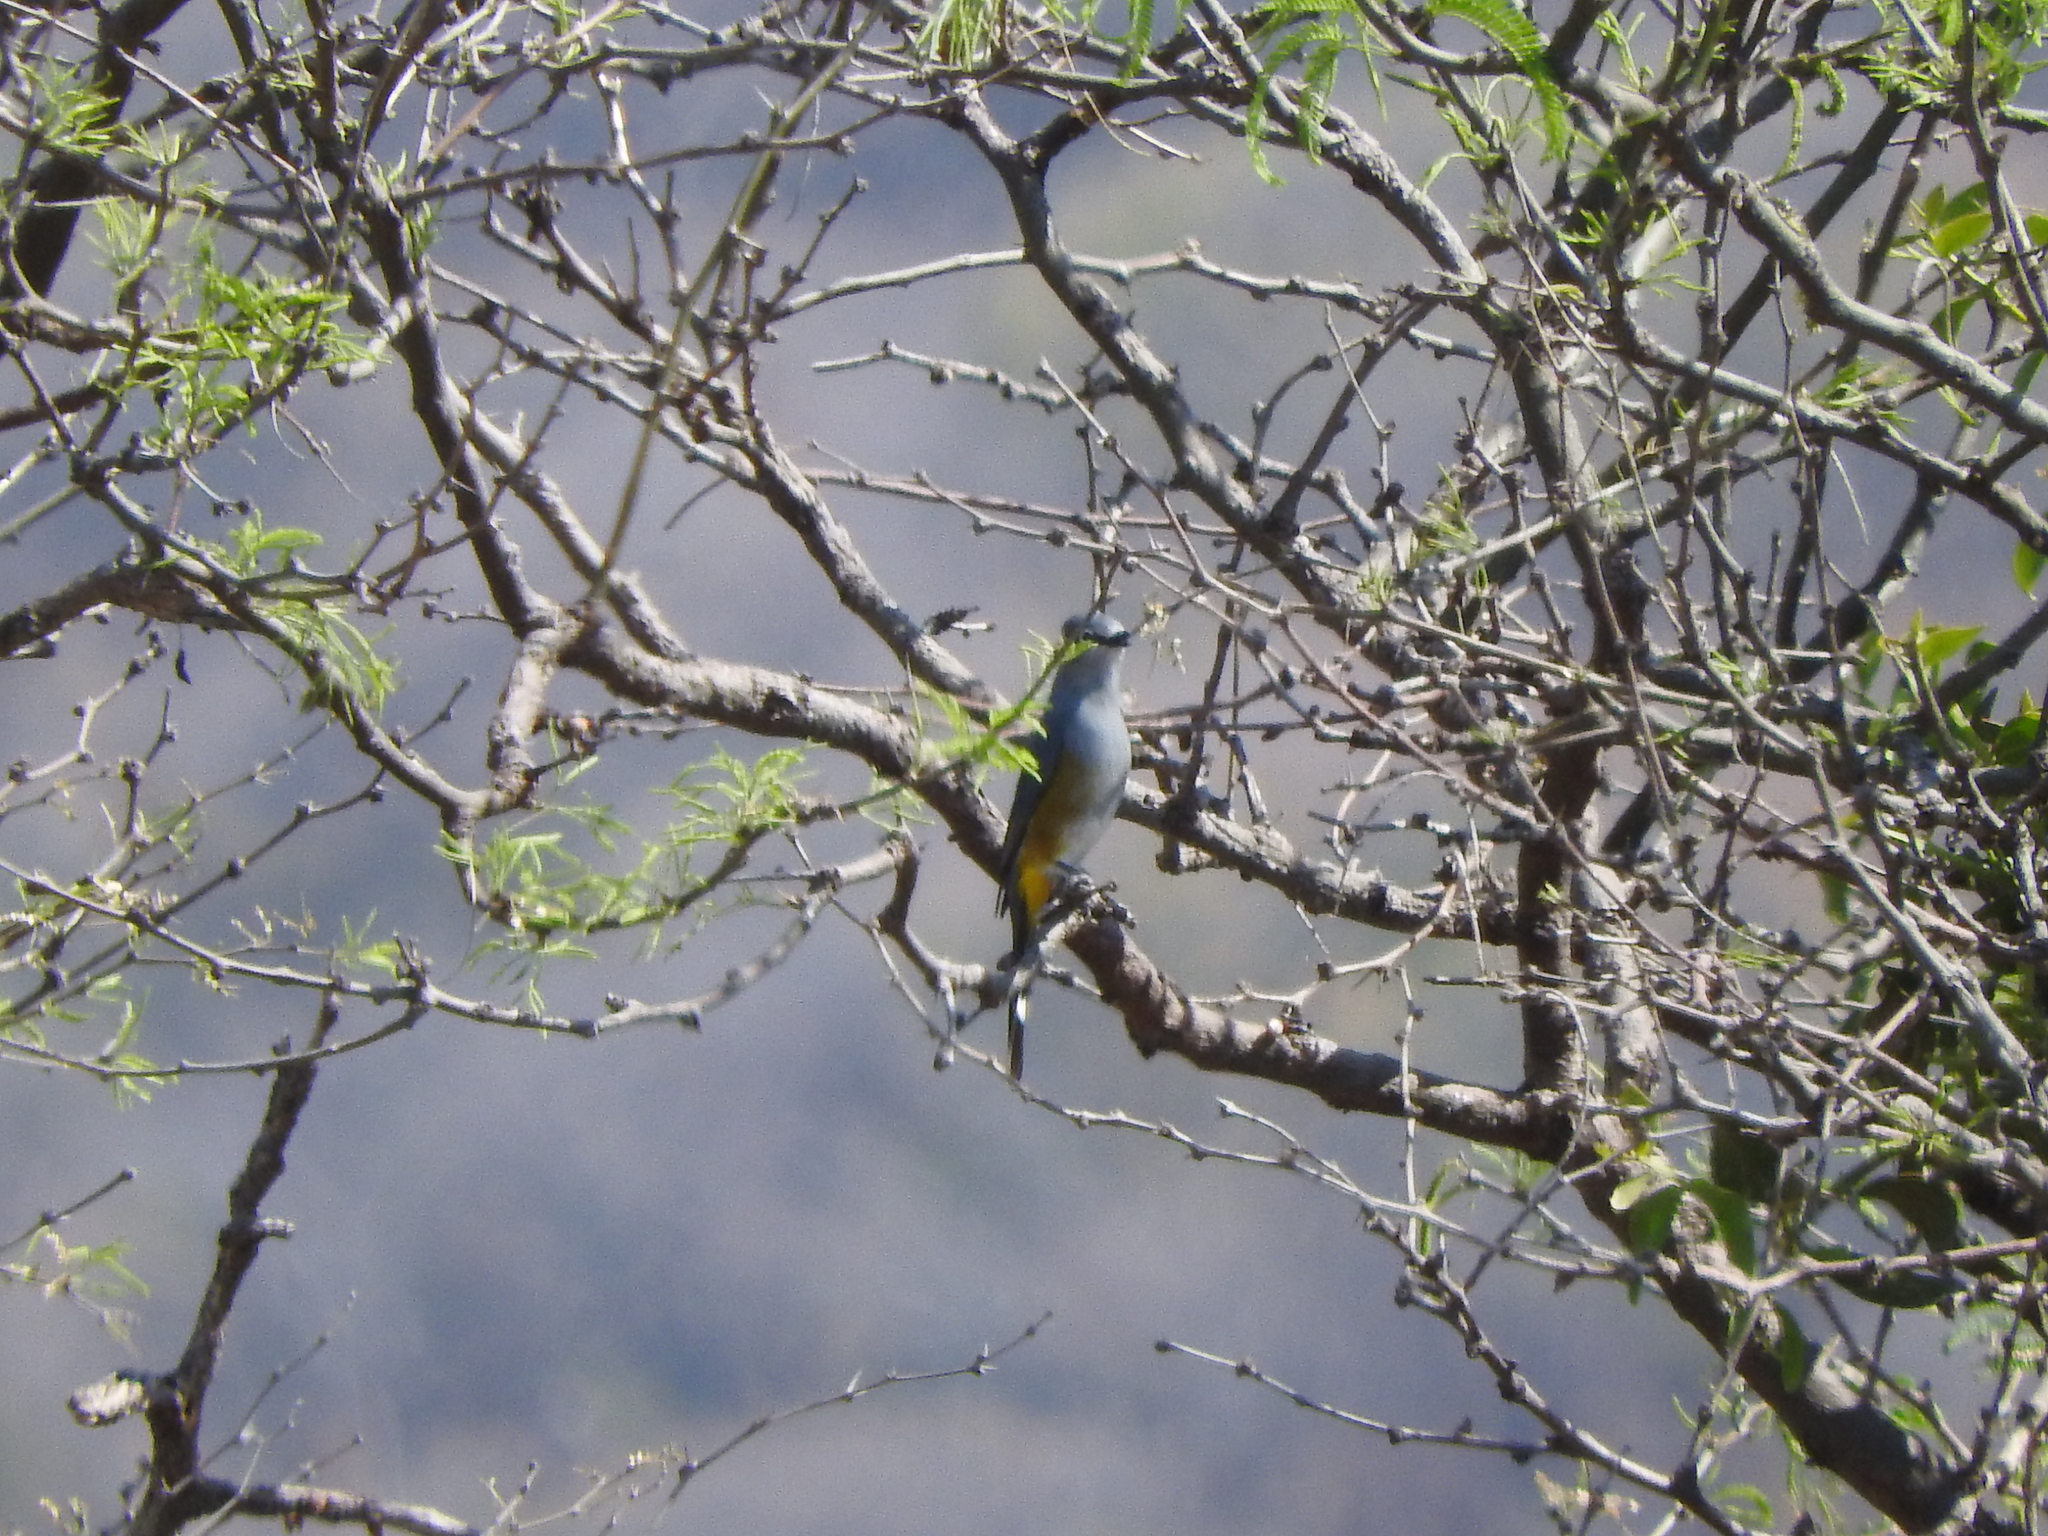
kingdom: Animalia
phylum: Chordata
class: Aves
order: Passeriformes
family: Ptilogonatidae
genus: Ptilogonys
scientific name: Ptilogonys cinereus
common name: Gray silky-flycatcher
